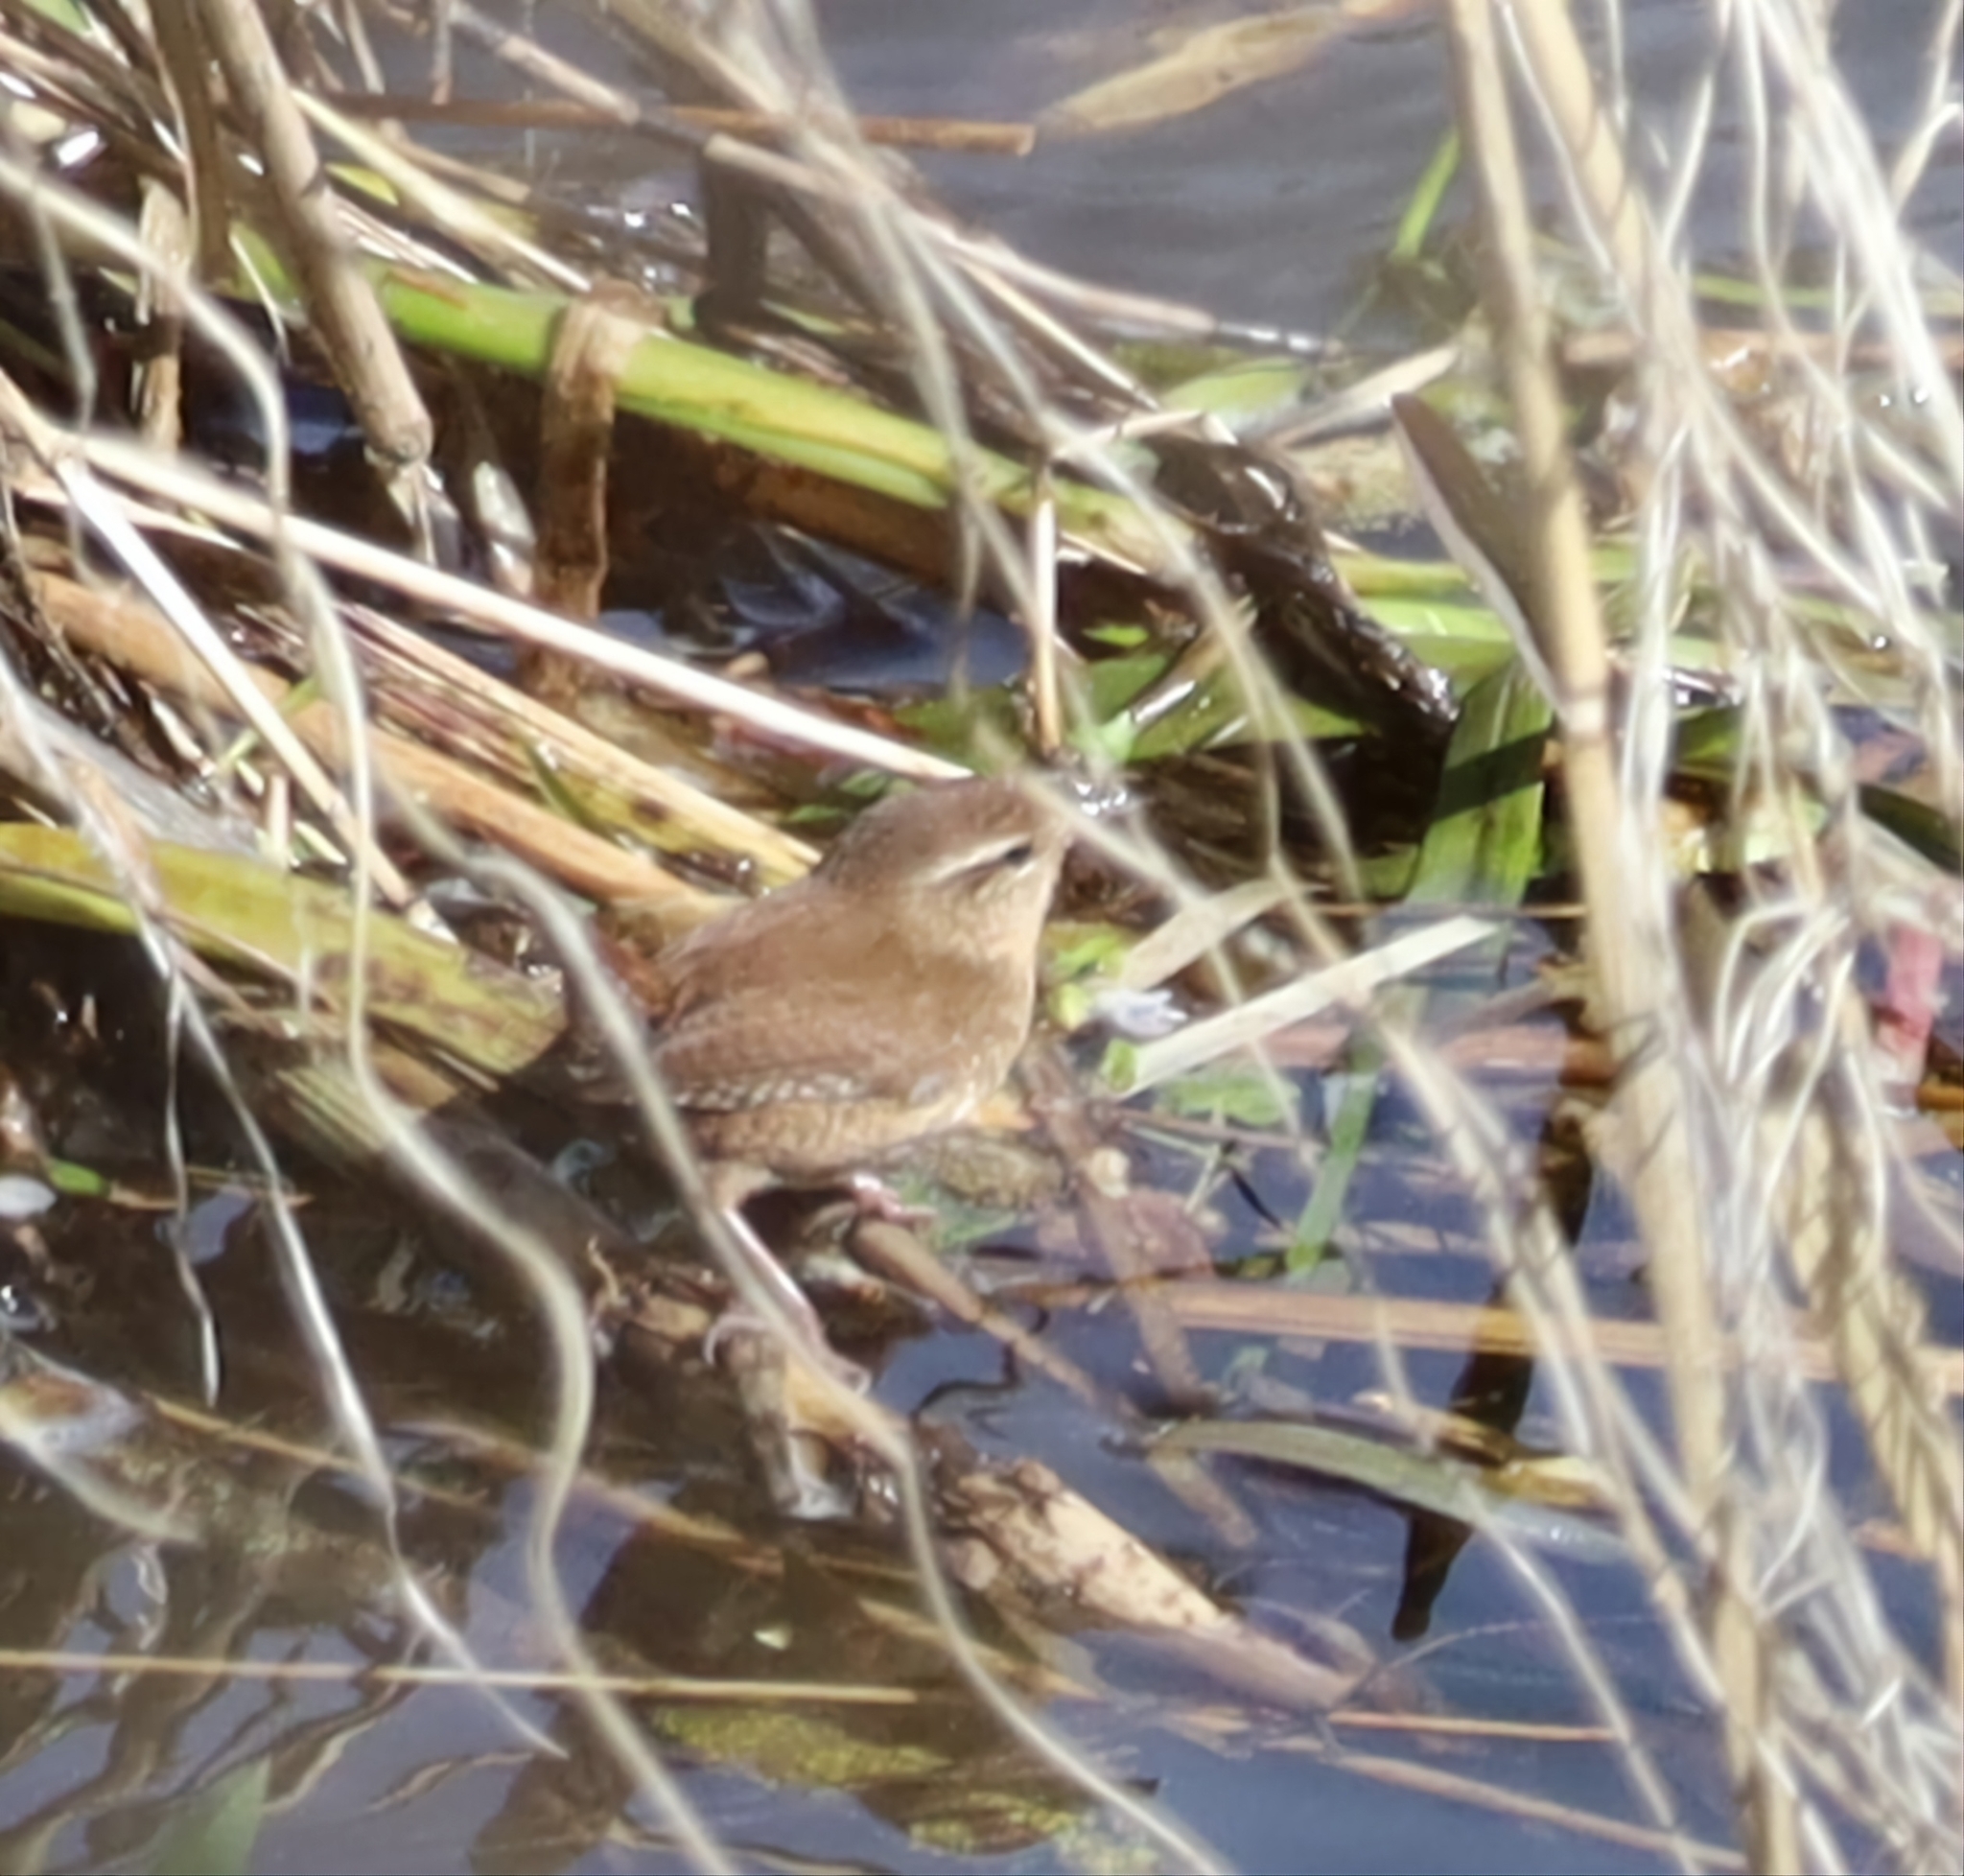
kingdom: Animalia
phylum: Chordata
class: Aves
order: Passeriformes
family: Troglodytidae
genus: Troglodytes
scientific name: Troglodytes troglodytes
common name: Eurasian wren
